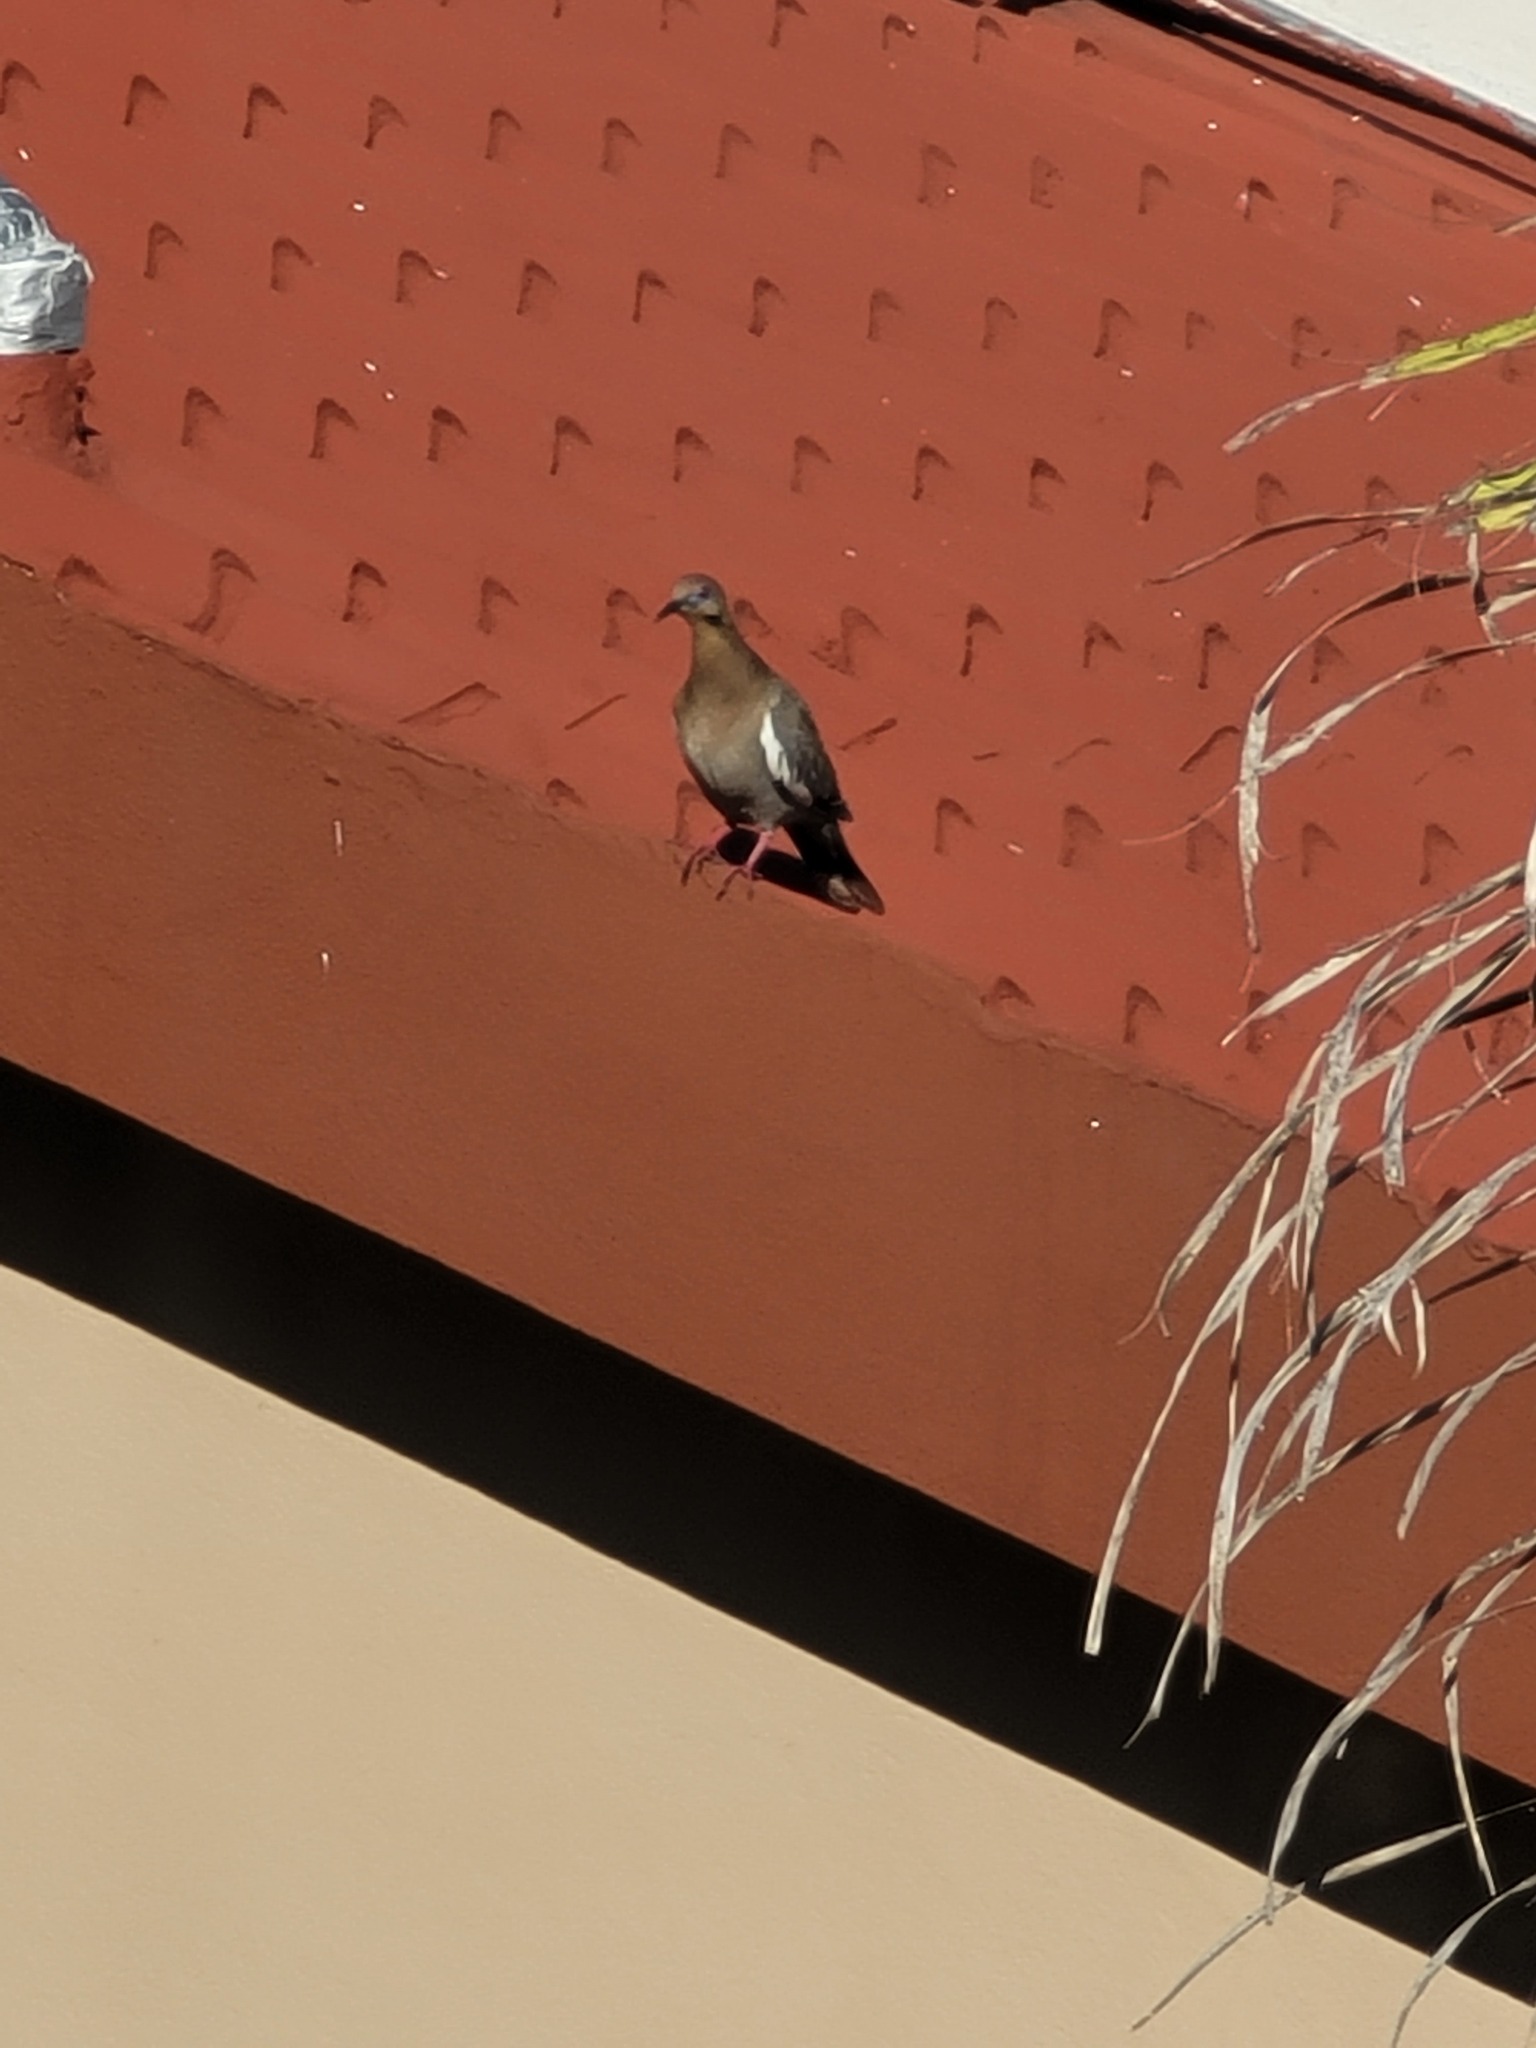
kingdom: Animalia
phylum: Chordata
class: Aves
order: Columbiformes
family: Columbidae
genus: Zenaida
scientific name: Zenaida asiatica
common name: White-winged dove
